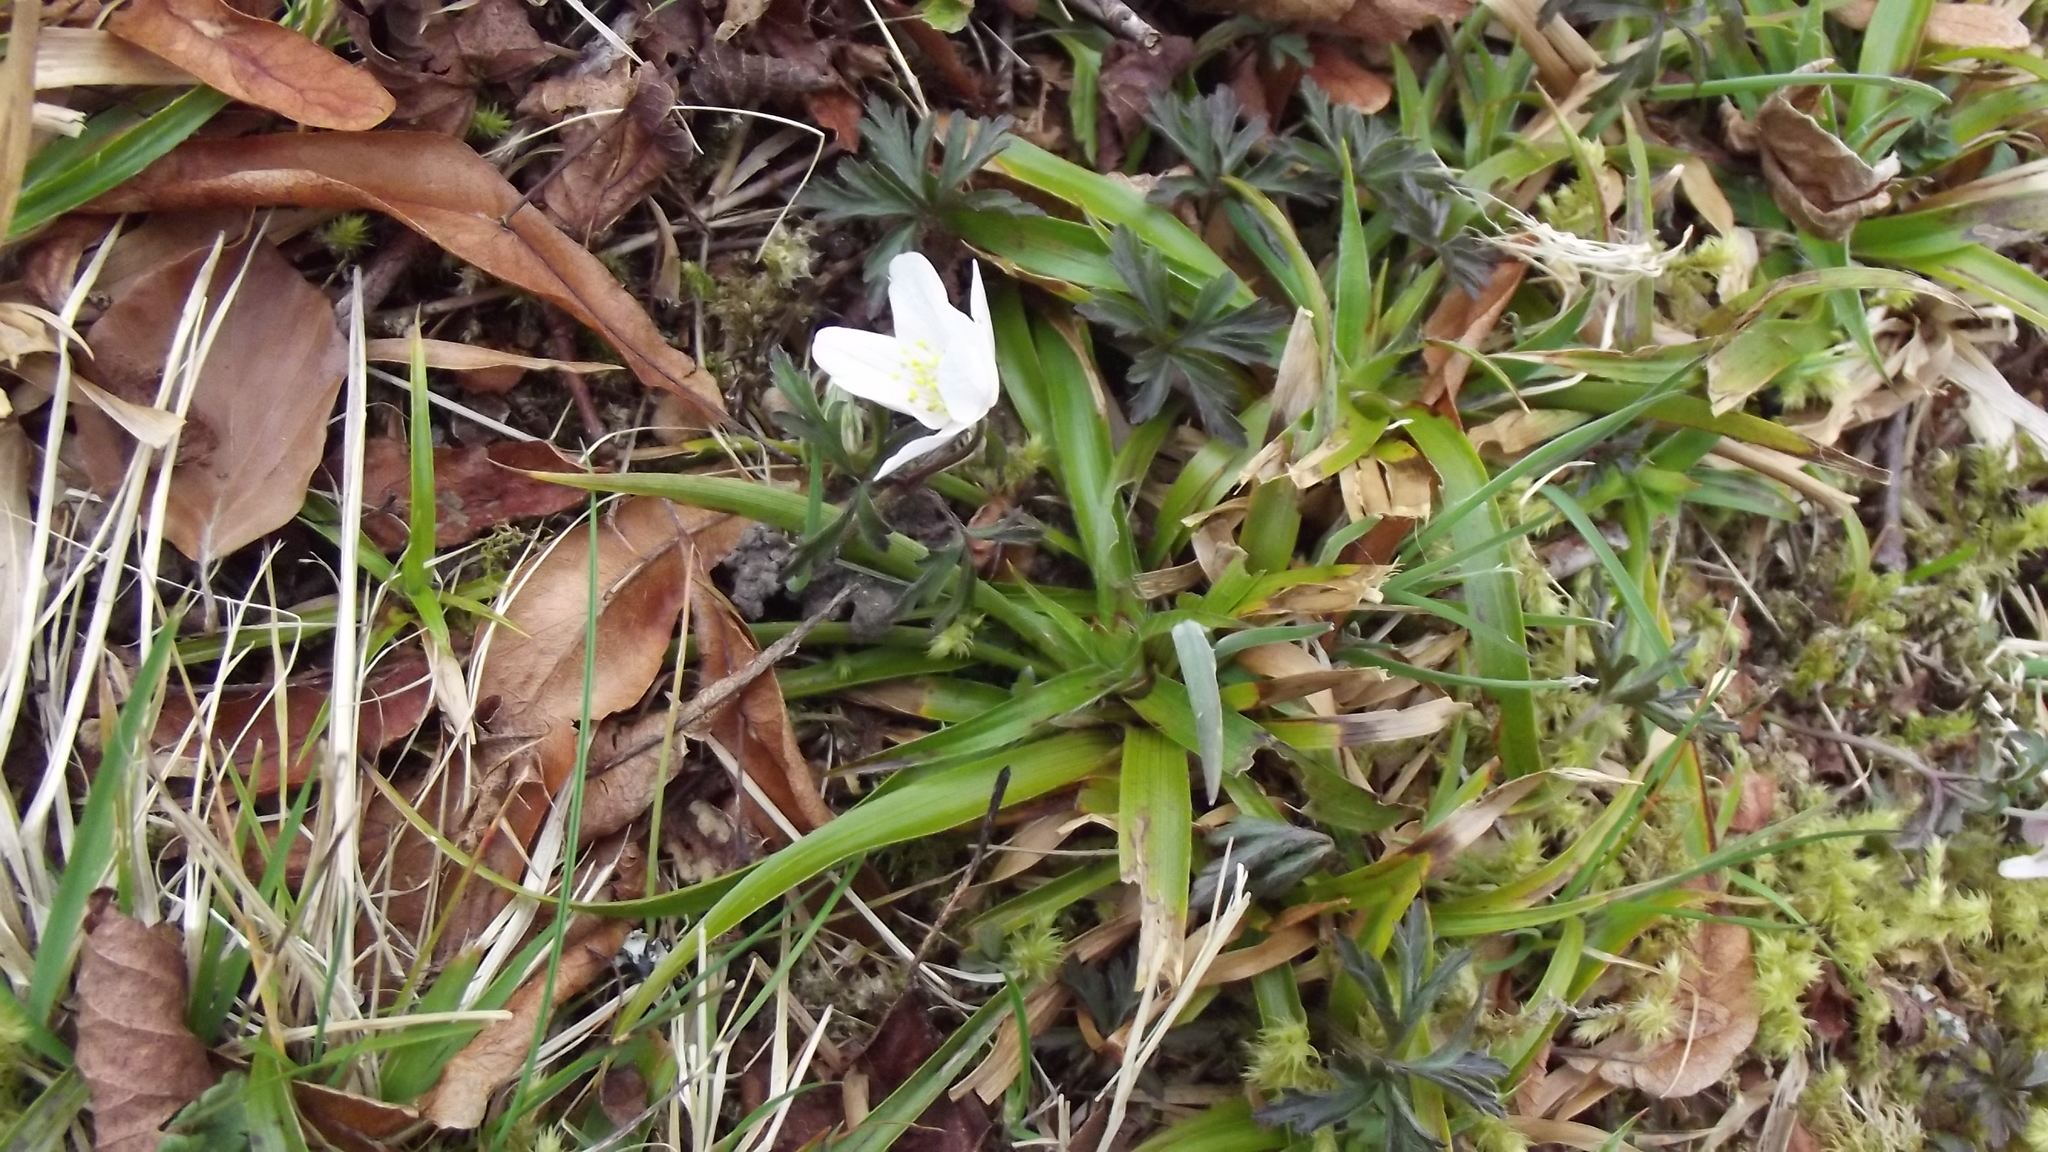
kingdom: Plantae
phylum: Tracheophyta
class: Magnoliopsida
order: Ranunculales
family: Ranunculaceae
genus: Anemone
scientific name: Anemone nemorosa
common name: Wood anemone
